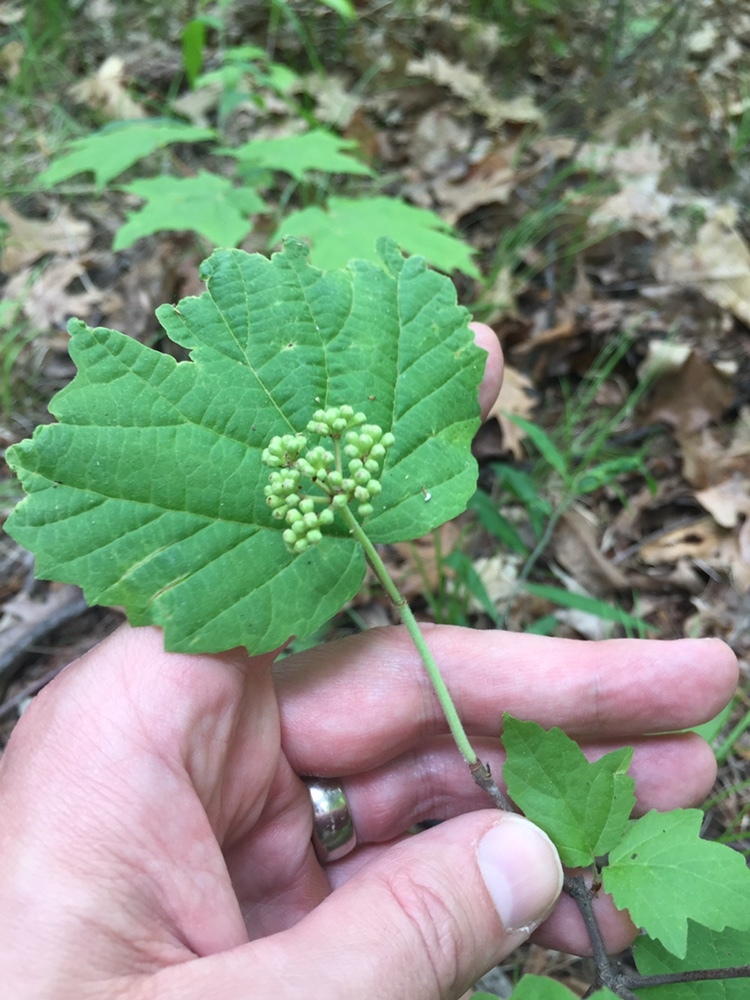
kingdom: Plantae
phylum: Tracheophyta
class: Magnoliopsida
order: Dipsacales
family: Viburnaceae
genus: Viburnum
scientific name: Viburnum acerifolium
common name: Dockmackie
